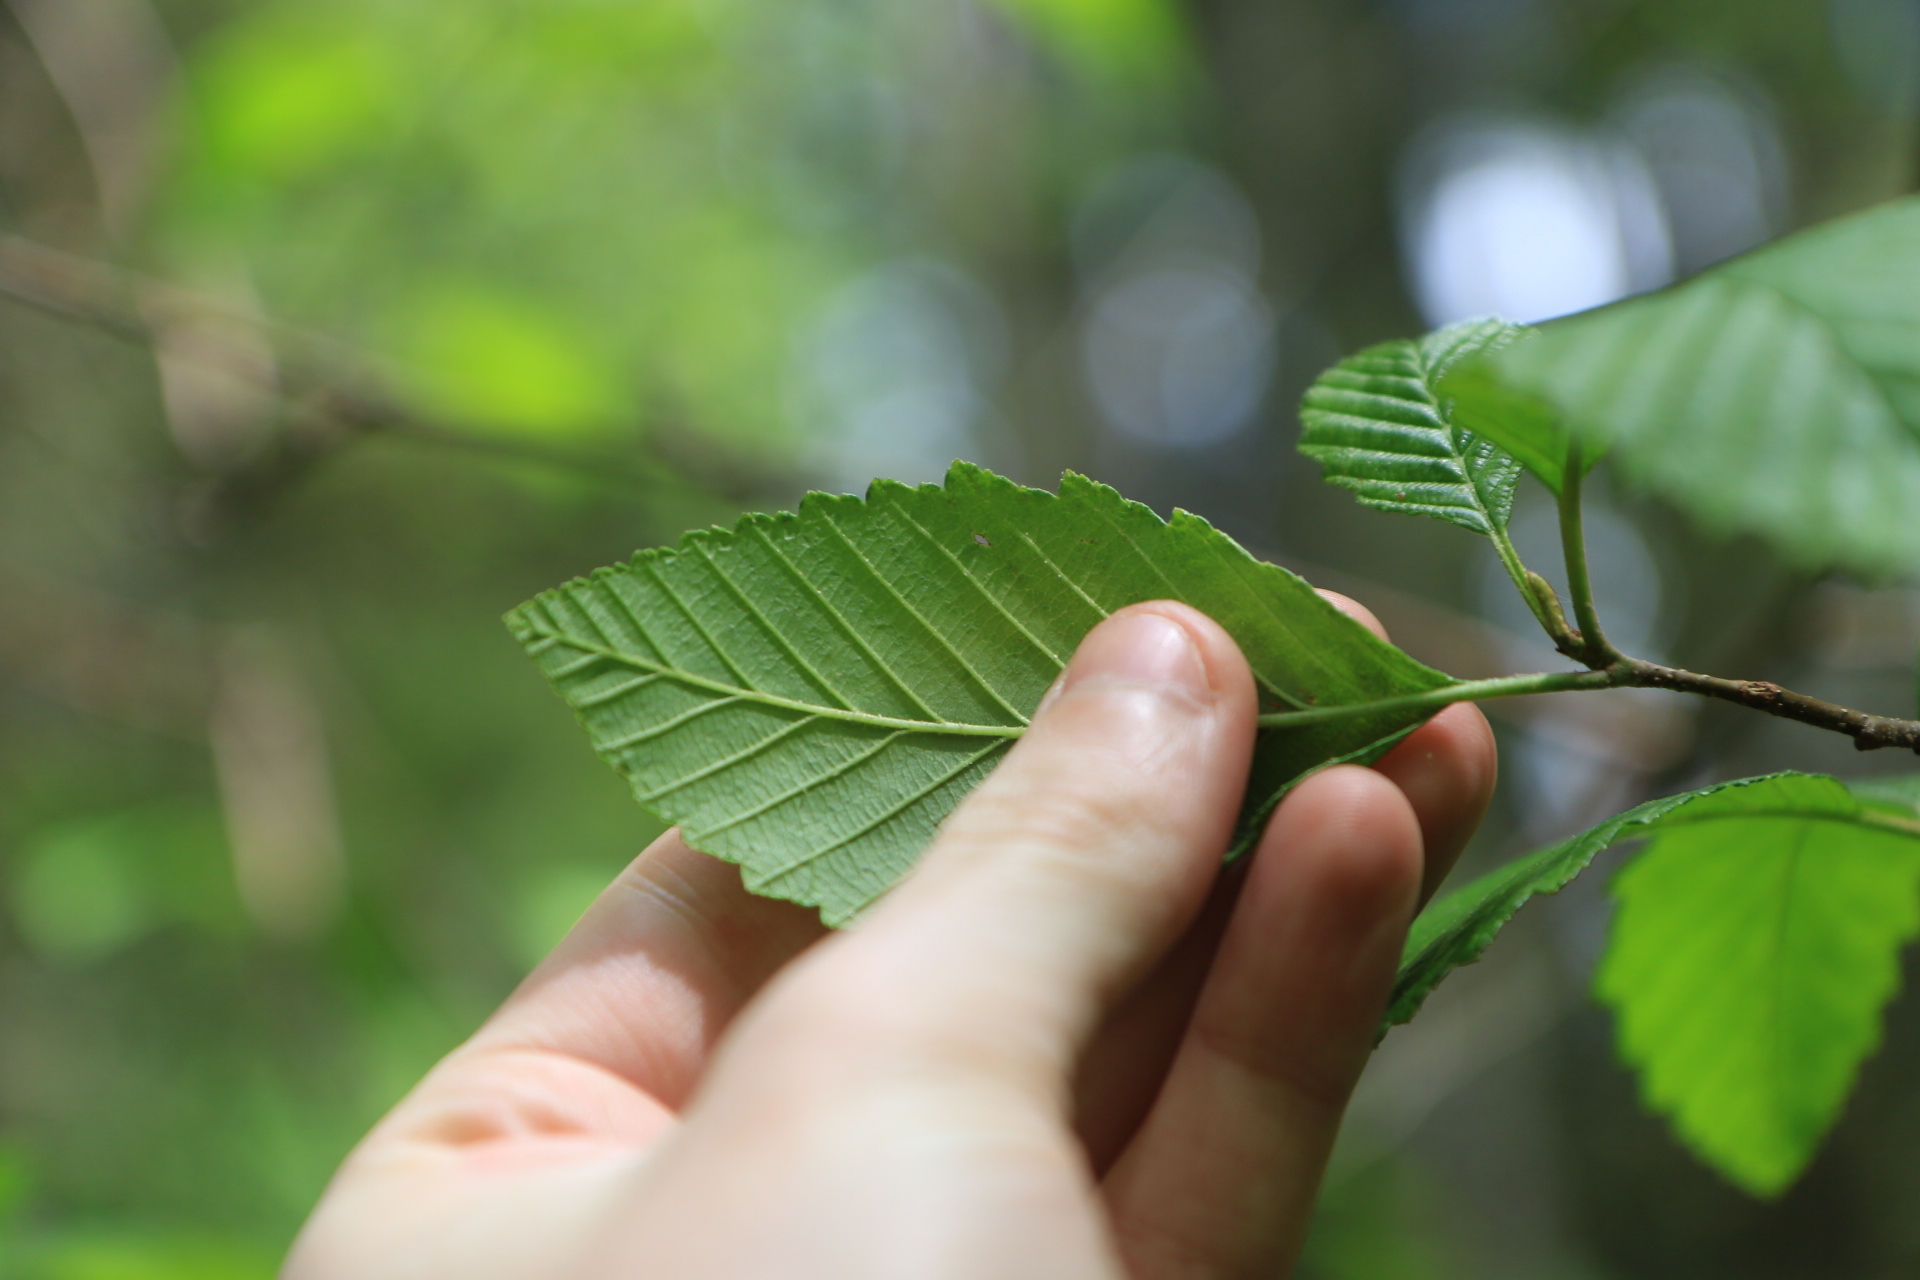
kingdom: Plantae
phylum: Tracheophyta
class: Magnoliopsida
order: Fagales
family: Betulaceae
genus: Alnus
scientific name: Alnus rubra
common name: Red alder
